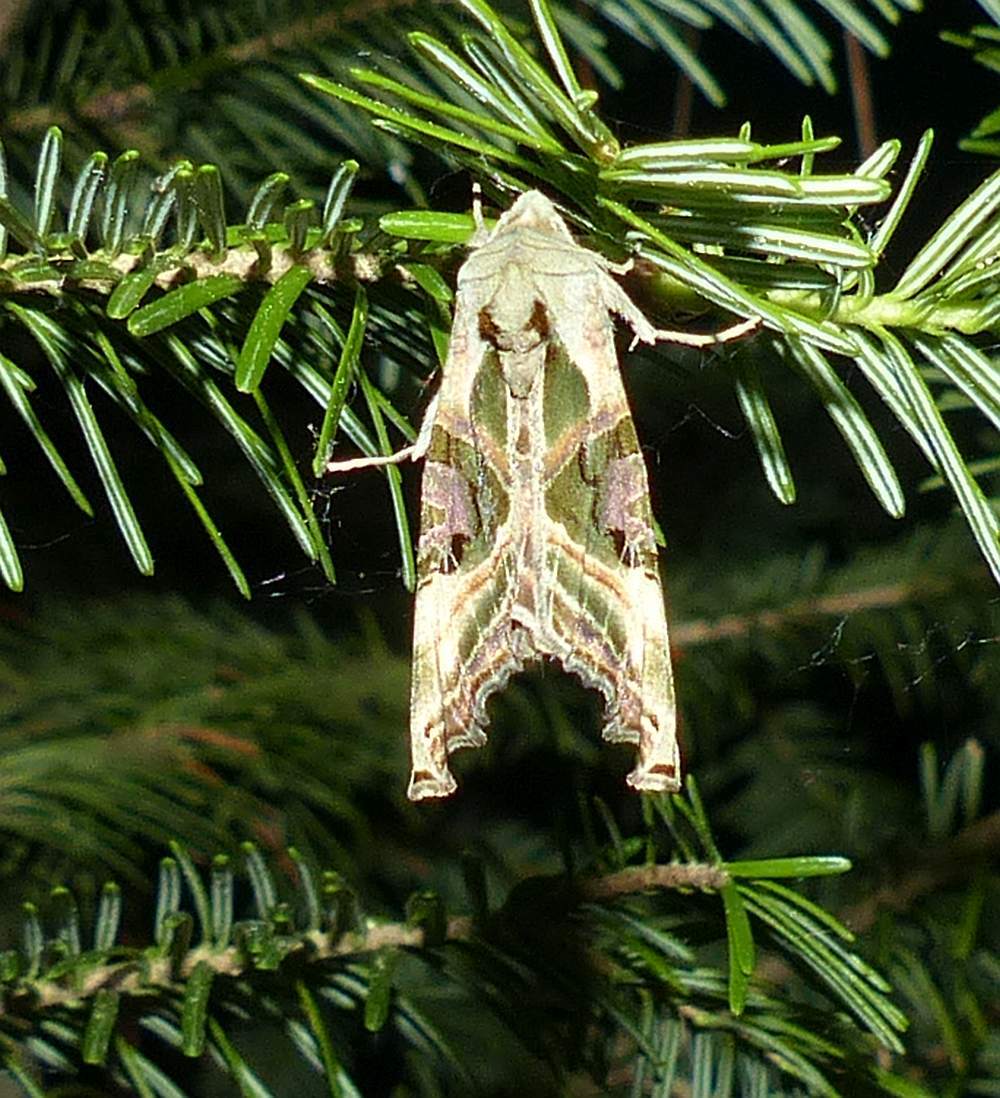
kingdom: Animalia
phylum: Arthropoda
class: Insecta
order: Lepidoptera
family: Noctuidae
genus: Phlogophora
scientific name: Phlogophora iris
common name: Olive angle shades
